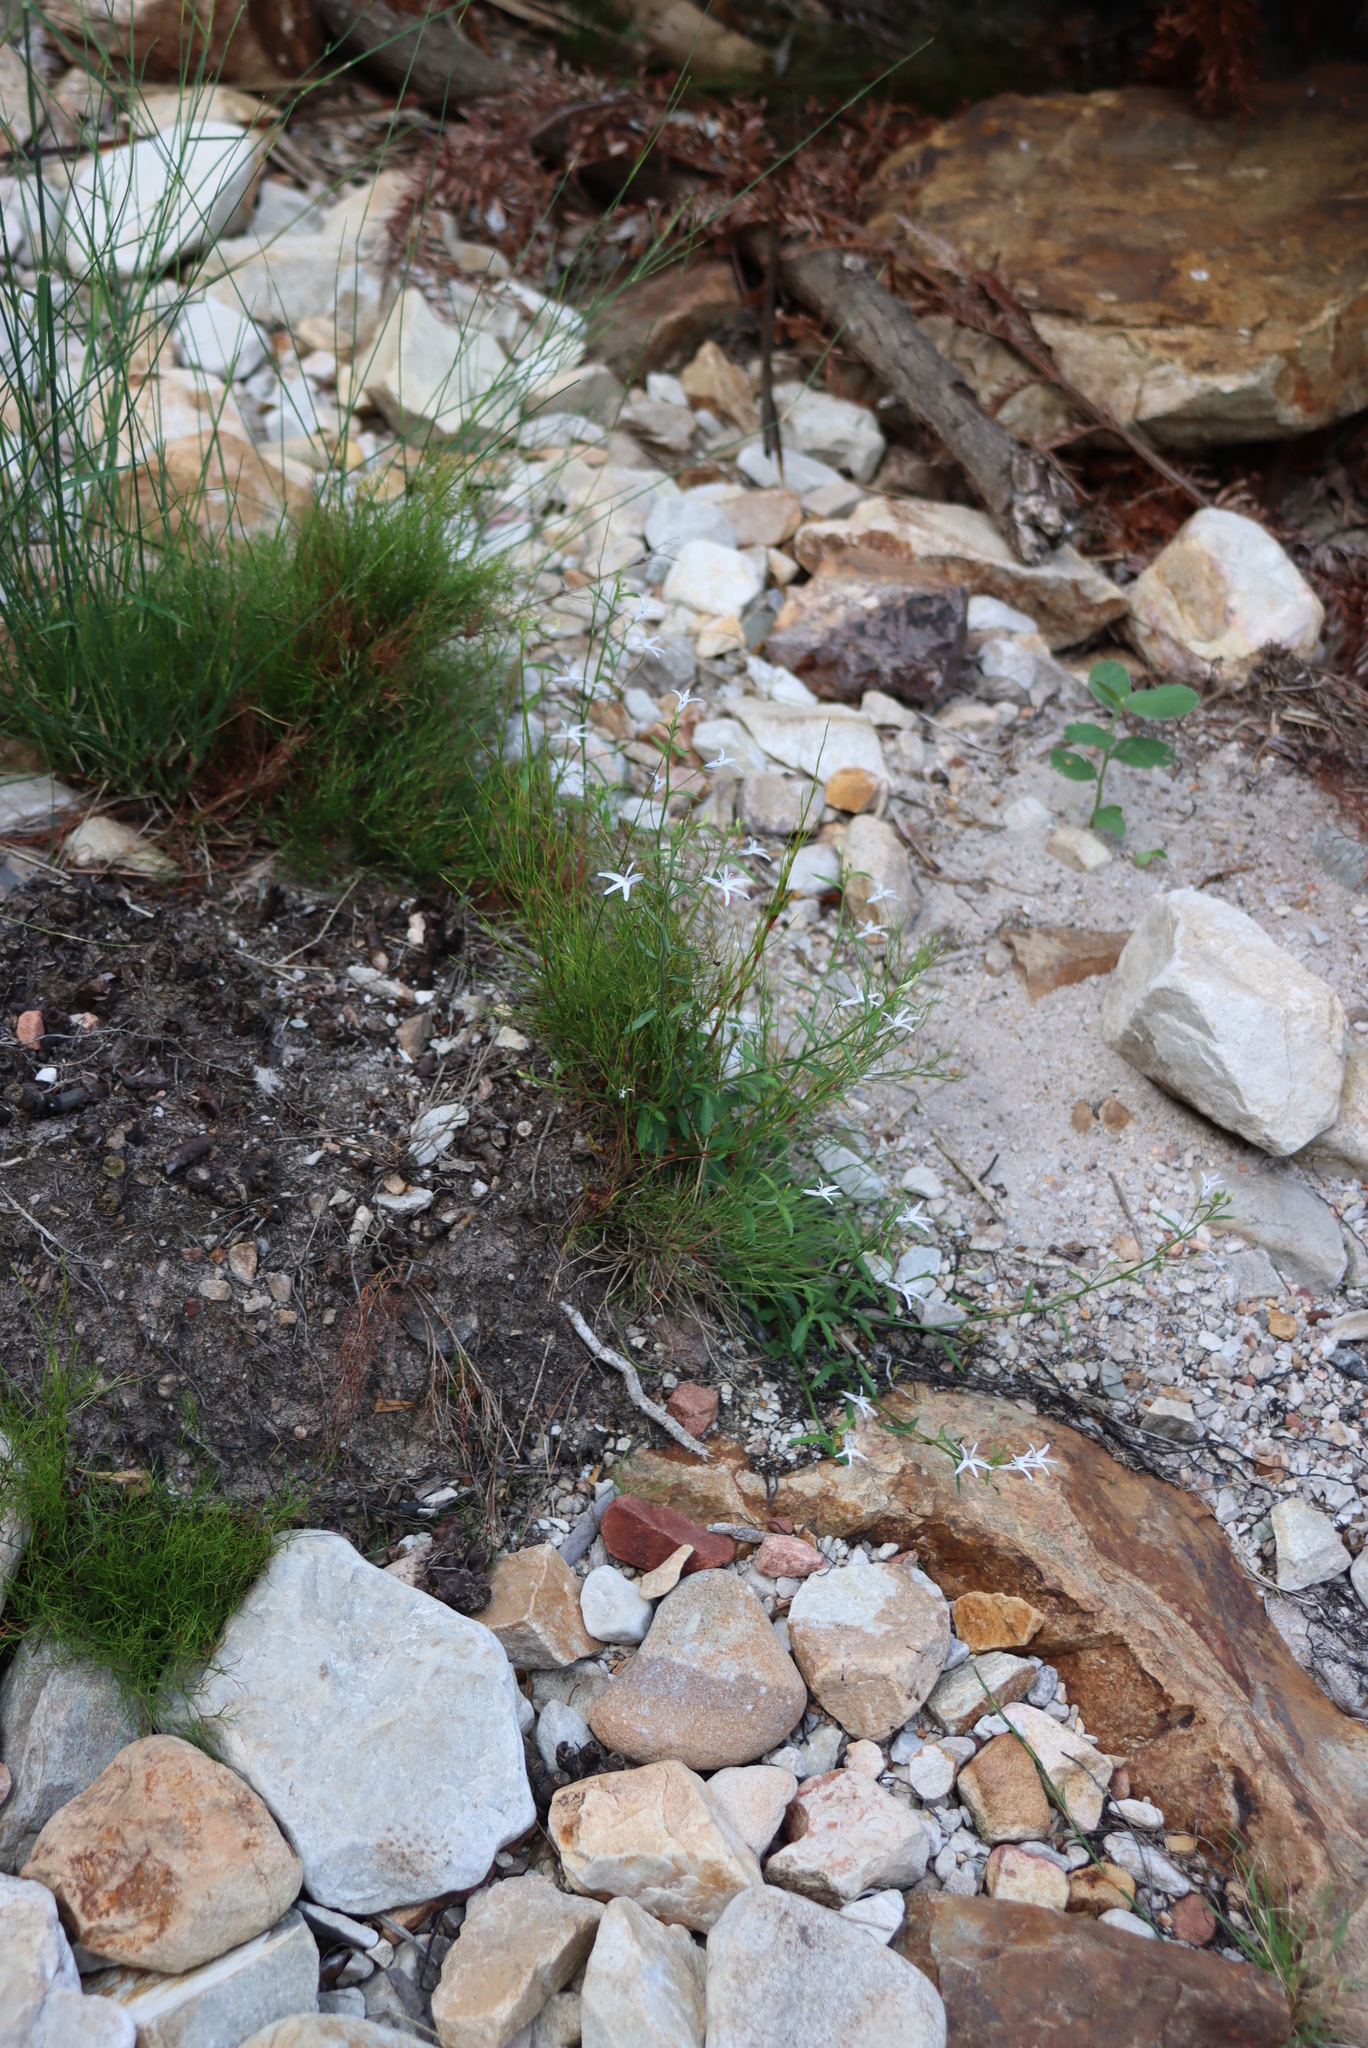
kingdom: Plantae
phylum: Tracheophyta
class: Magnoliopsida
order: Asterales
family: Campanulaceae
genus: Lobelia
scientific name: Lobelia pubescens
